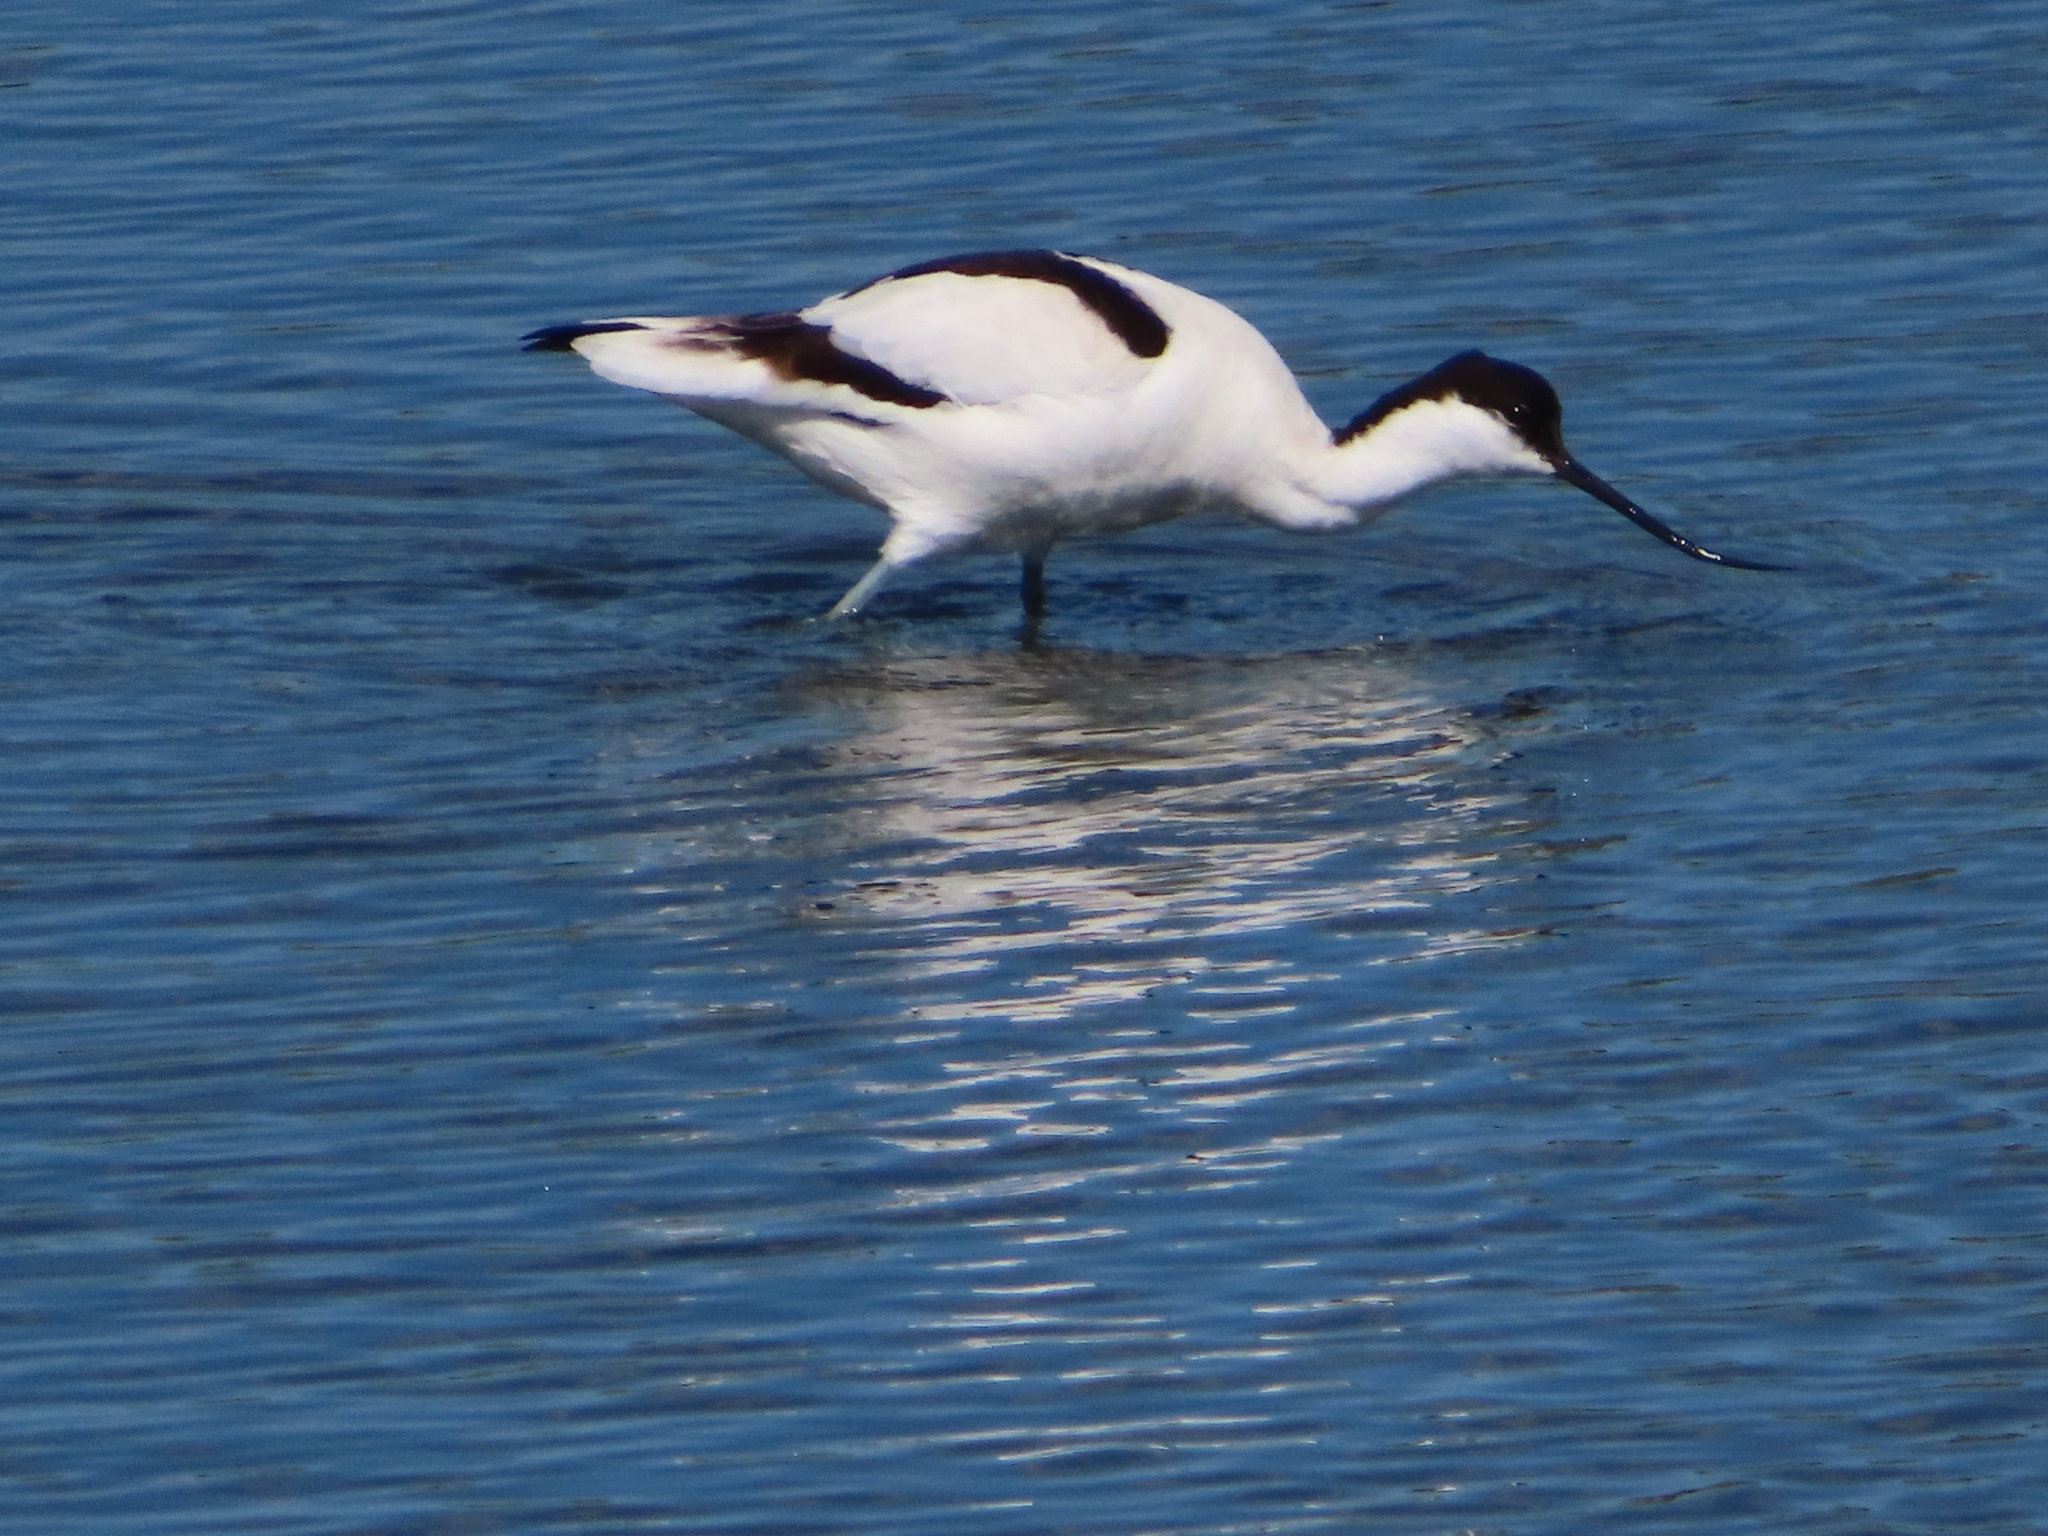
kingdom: Animalia
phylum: Chordata
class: Aves
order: Charadriiformes
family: Recurvirostridae
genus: Recurvirostra
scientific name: Recurvirostra avosetta
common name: Pied avocet
